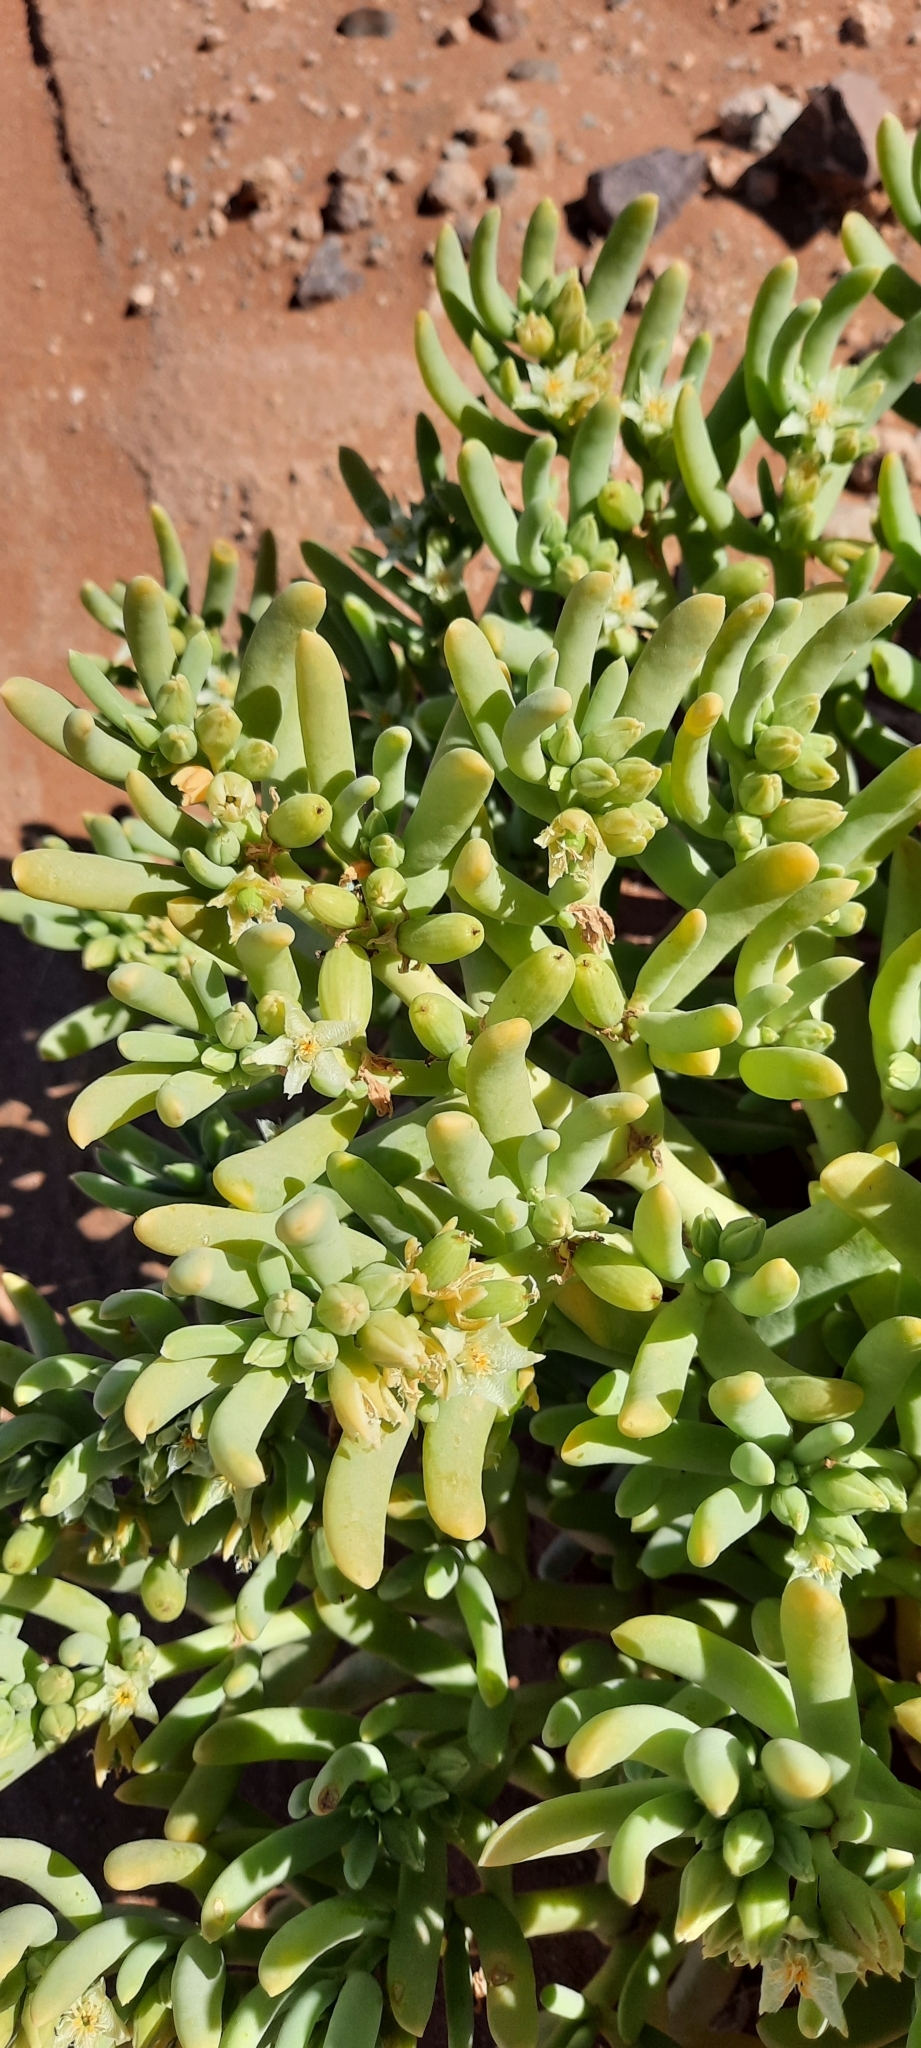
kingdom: Plantae
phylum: Tracheophyta
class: Magnoliopsida
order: Zygophyllales
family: Zygophyllaceae
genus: Augea
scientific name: Augea capensis
